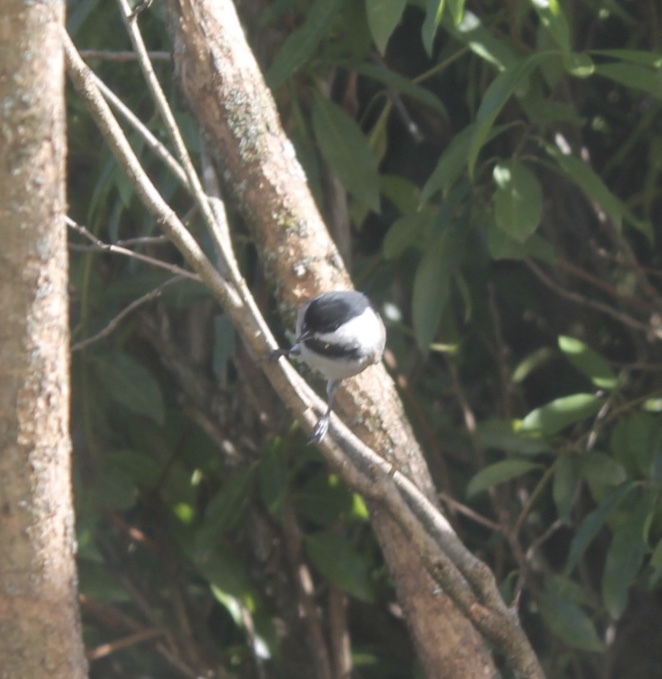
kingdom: Animalia
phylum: Chordata
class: Aves
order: Passeriformes
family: Paridae
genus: Poecile
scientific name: Poecile atricapillus
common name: Black-capped chickadee
